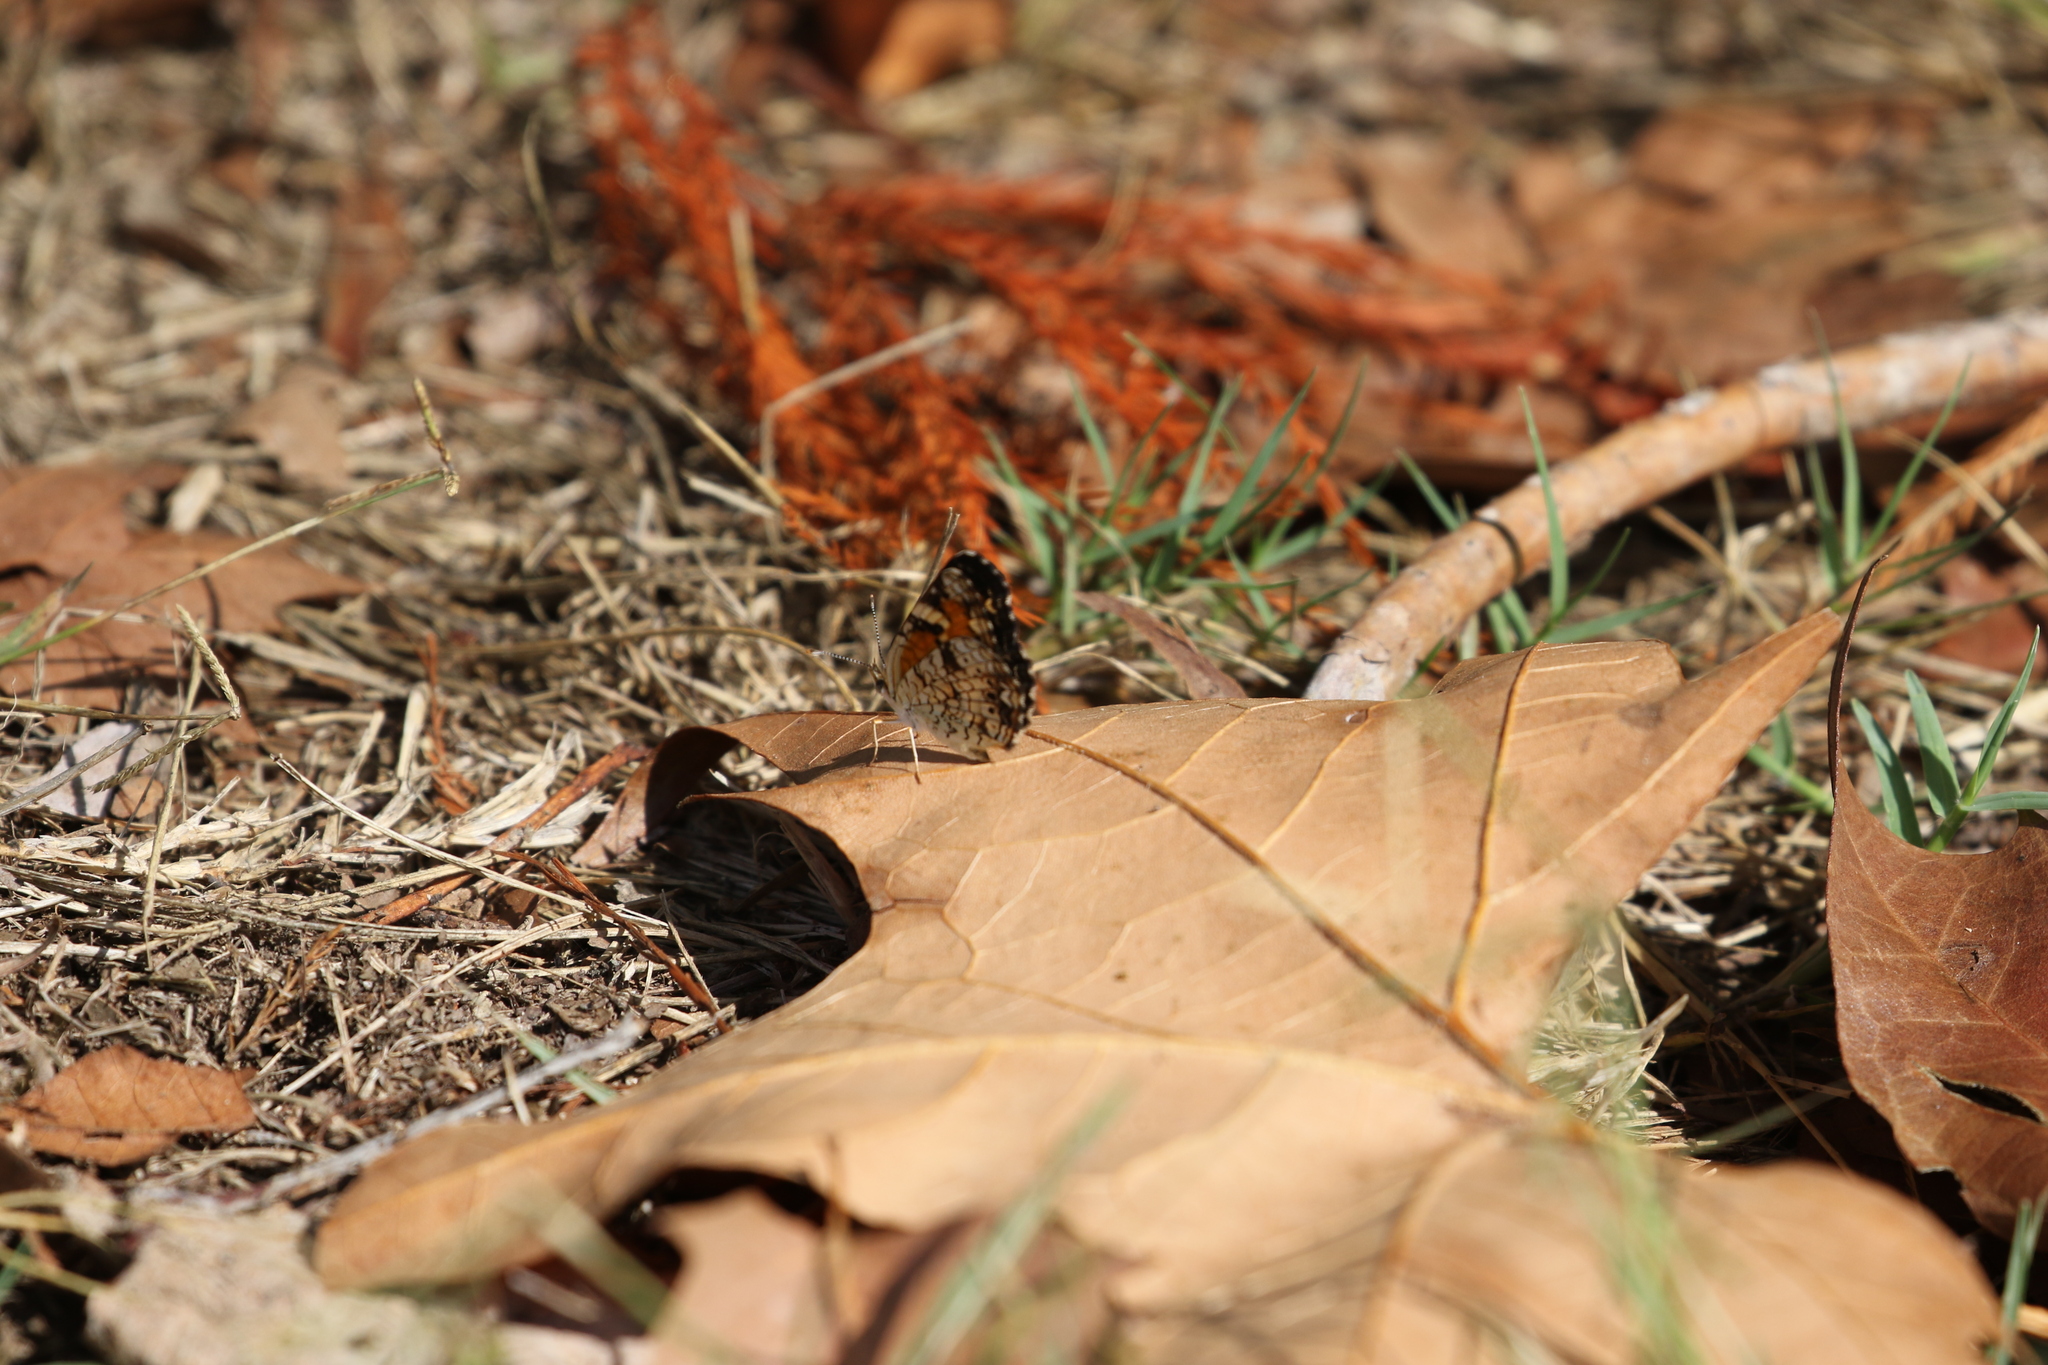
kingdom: Animalia
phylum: Arthropoda
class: Insecta
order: Lepidoptera
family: Nymphalidae
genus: Phyciodes
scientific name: Phyciodes phaon
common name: Phaon crescent
